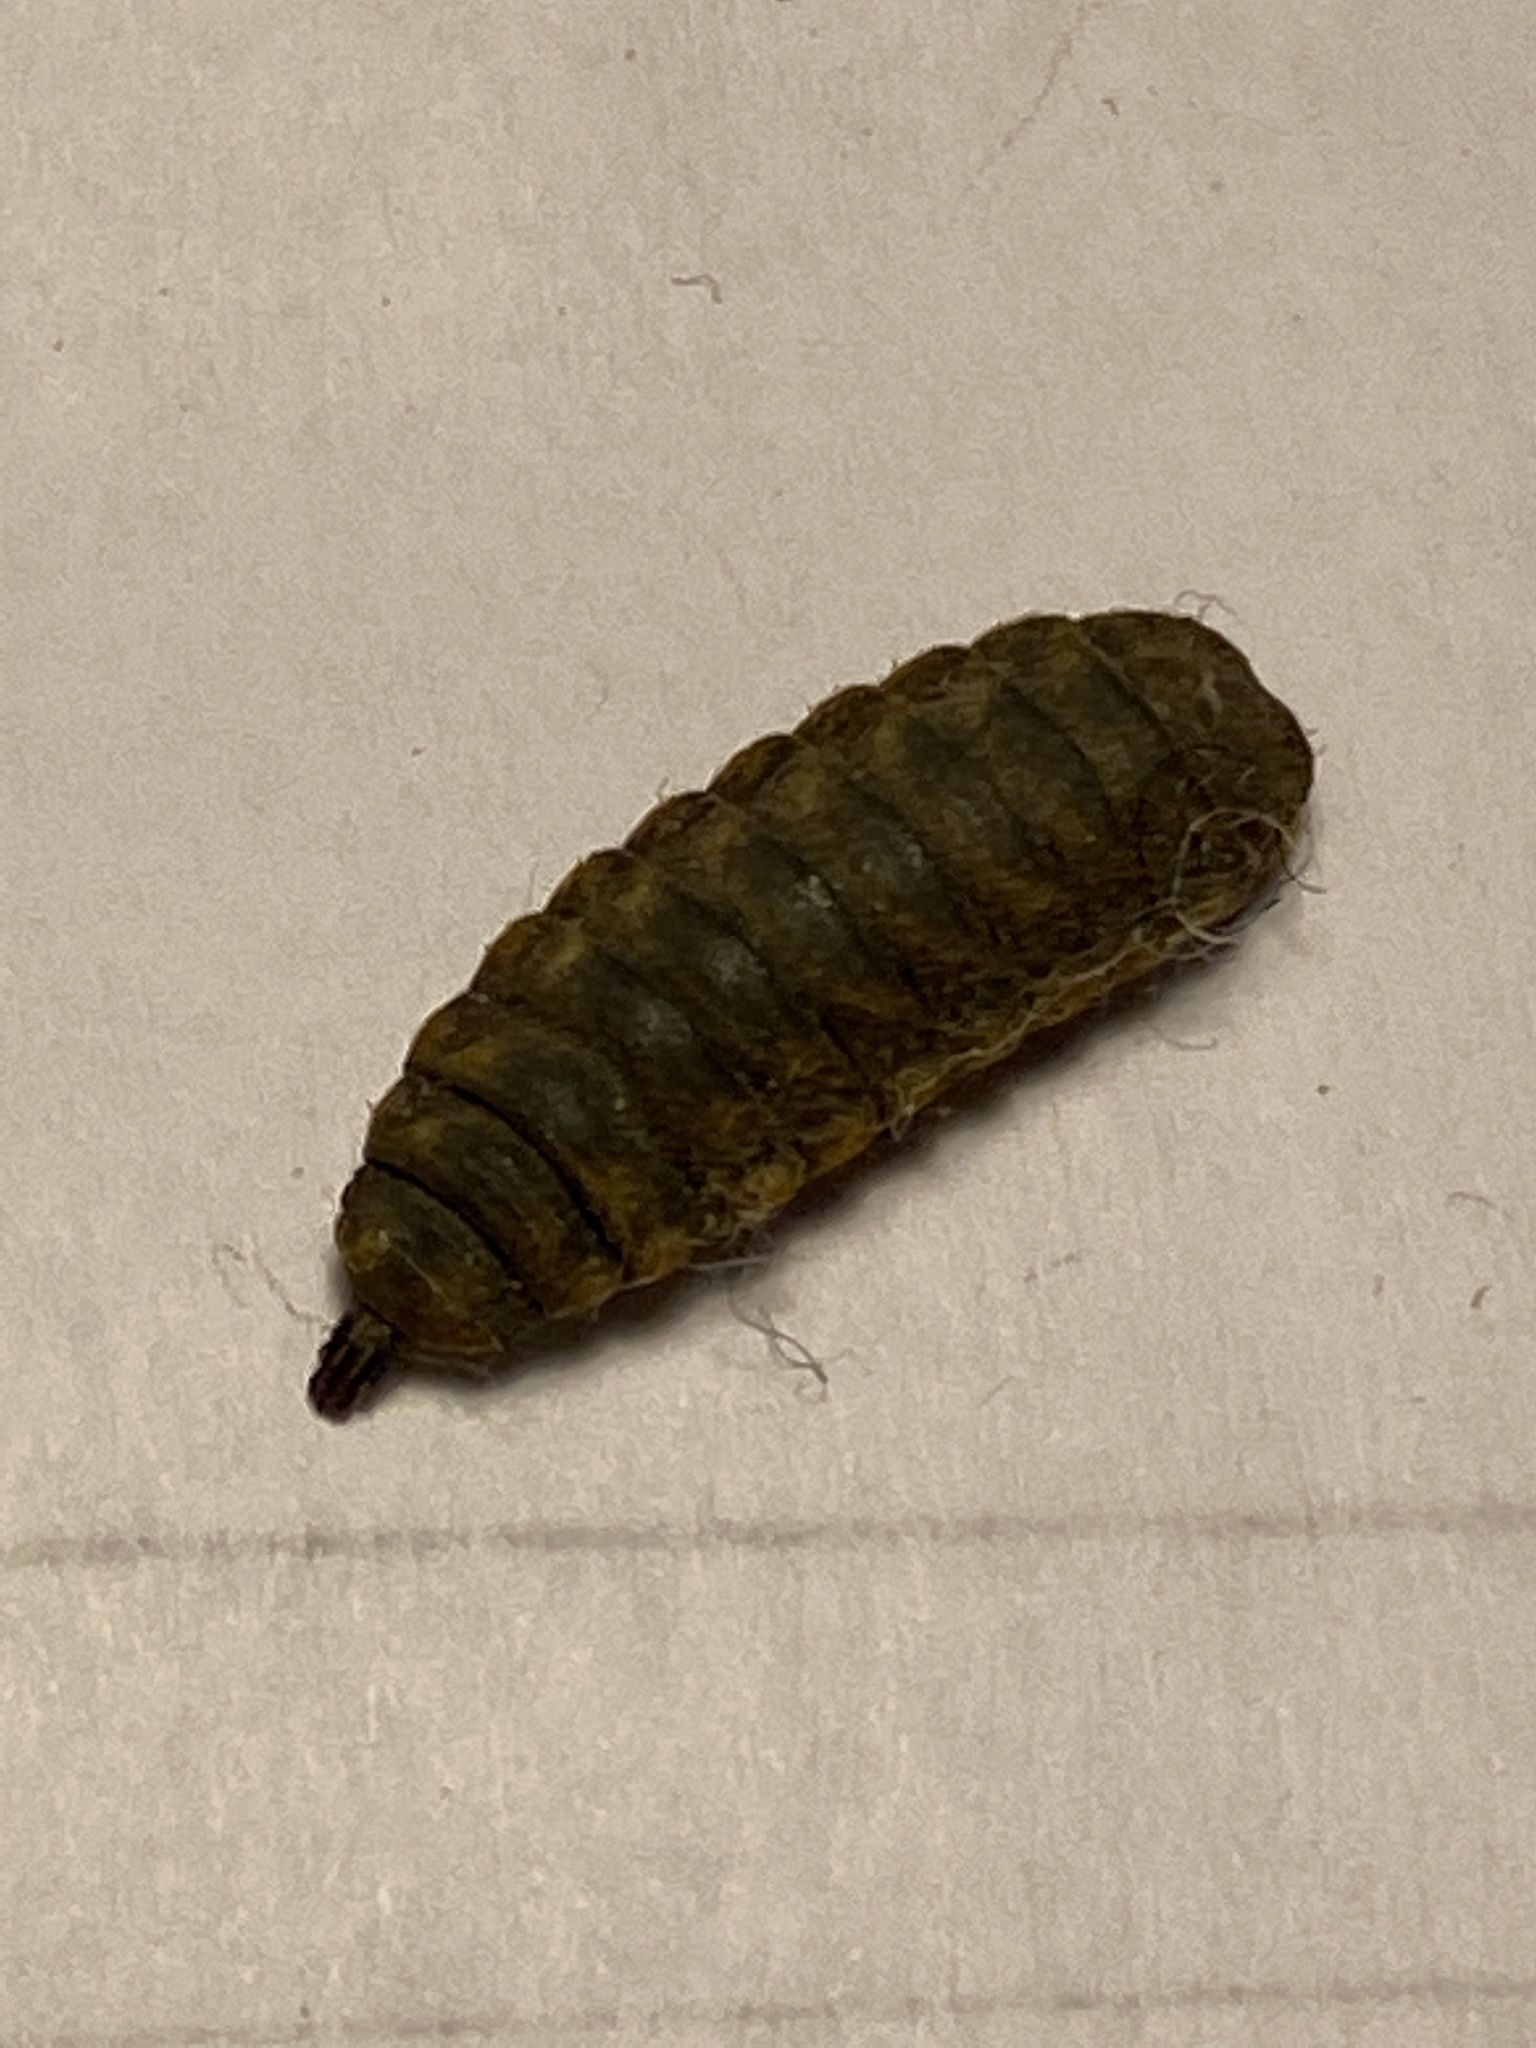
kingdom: Animalia
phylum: Arthropoda
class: Insecta
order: Diptera
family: Stratiomyidae
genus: Hermetia
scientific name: Hermetia illucens
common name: Black soldier fly
